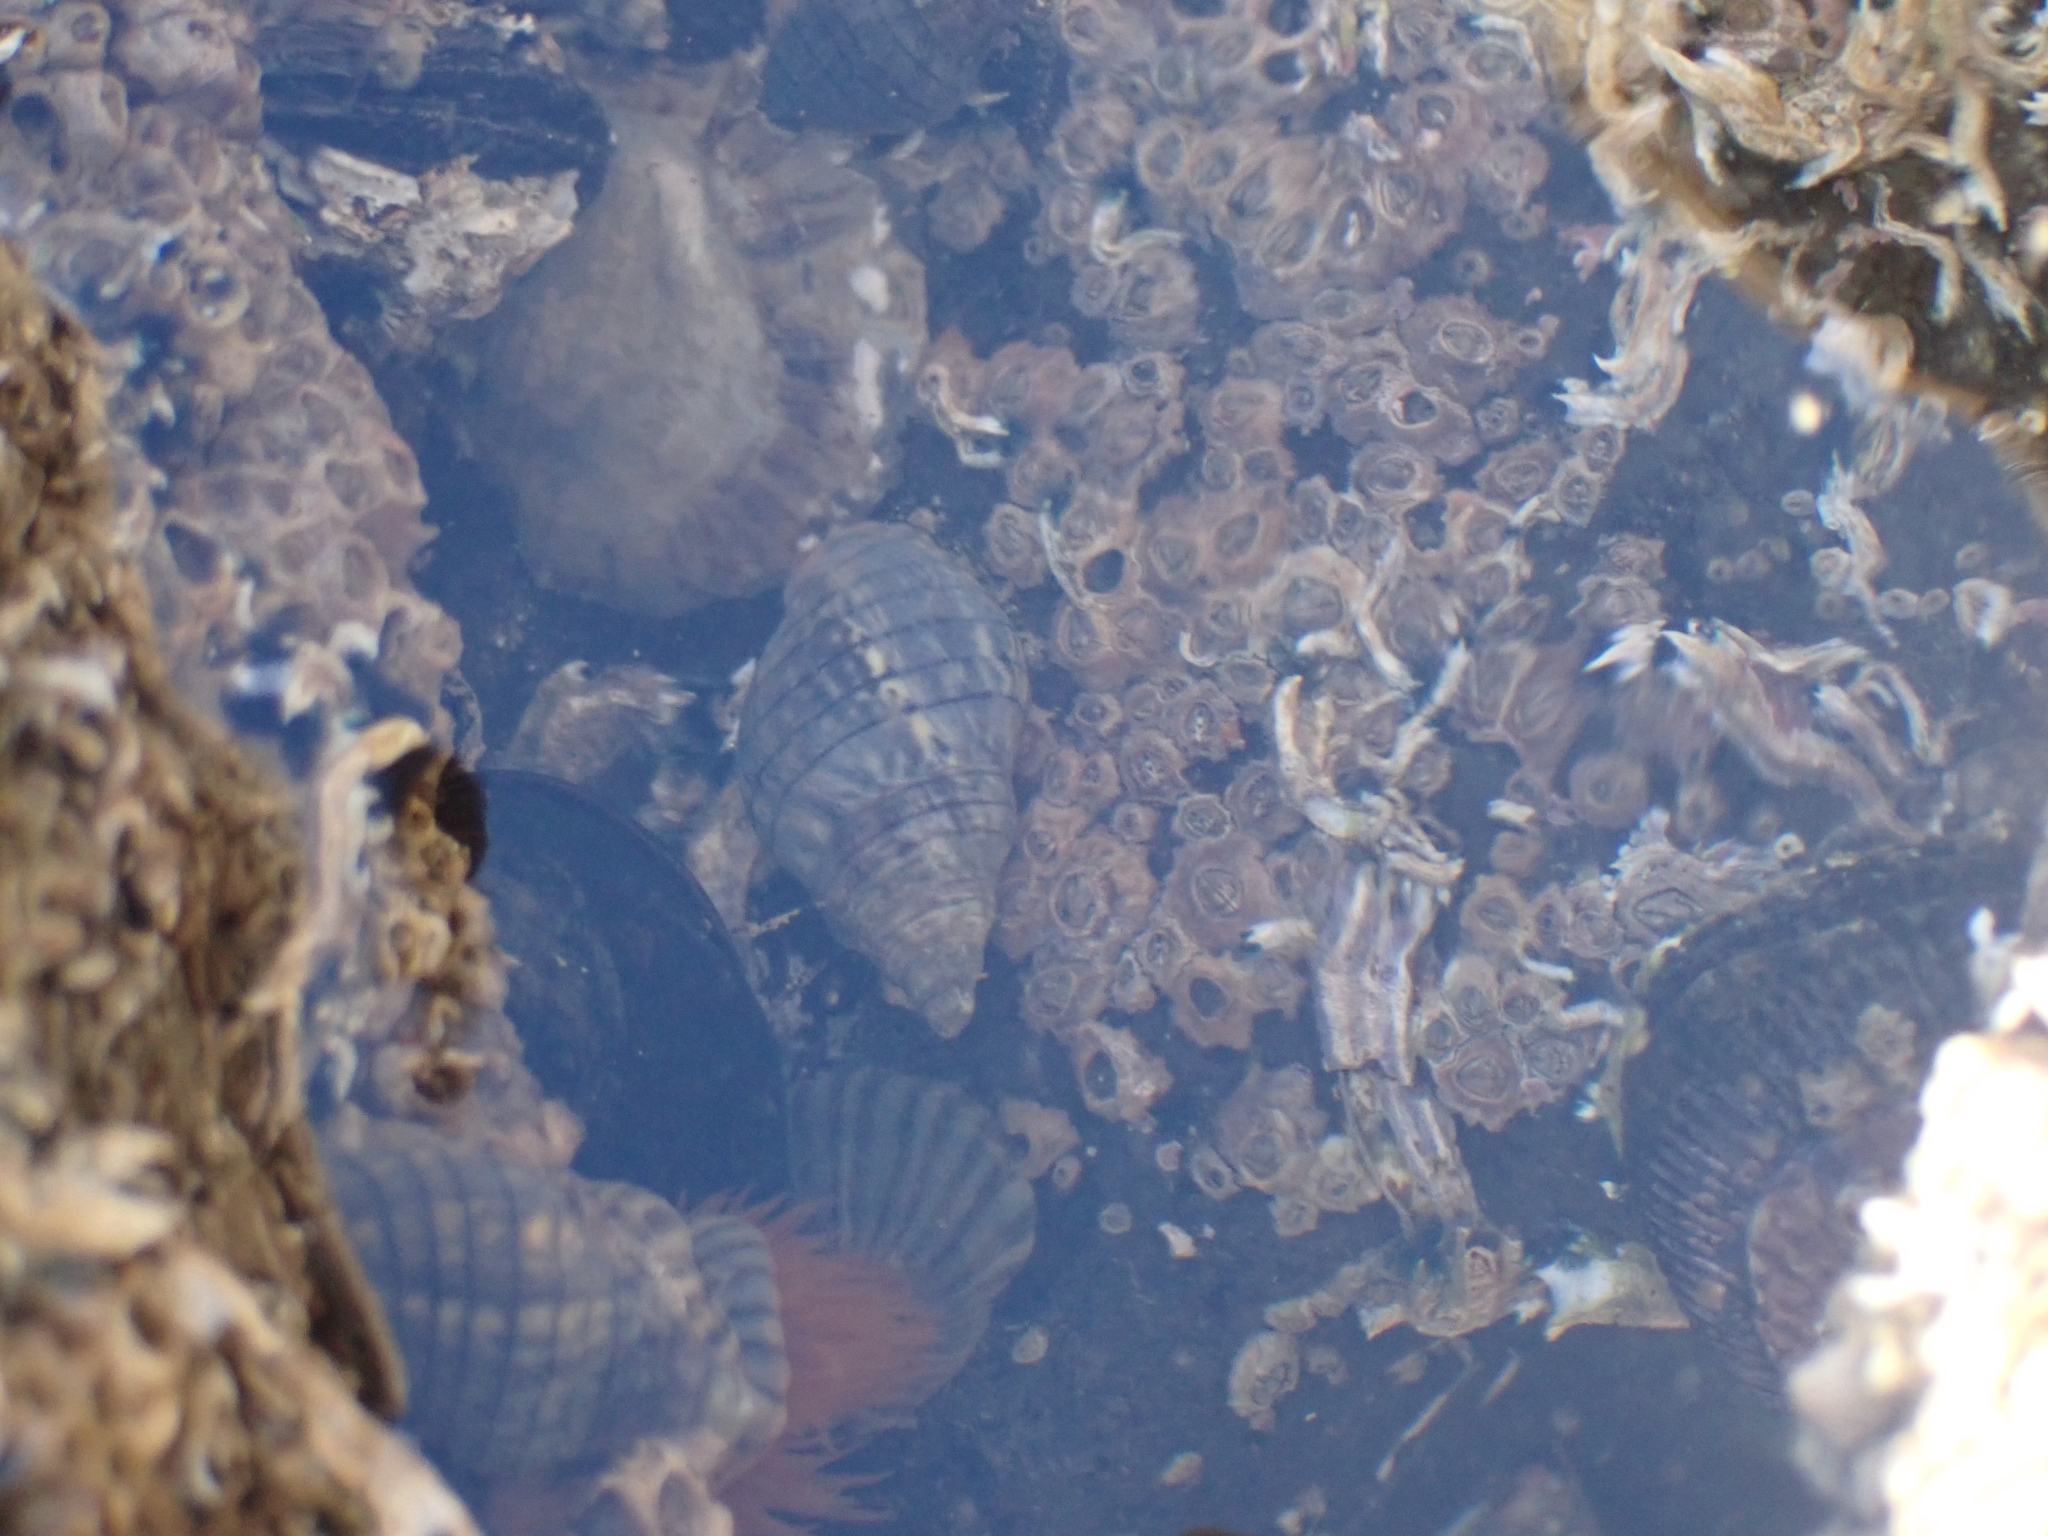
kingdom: Animalia
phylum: Mollusca
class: Gastropoda
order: Neogastropoda
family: Cominellidae
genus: Cominella
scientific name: Cominella virgata
